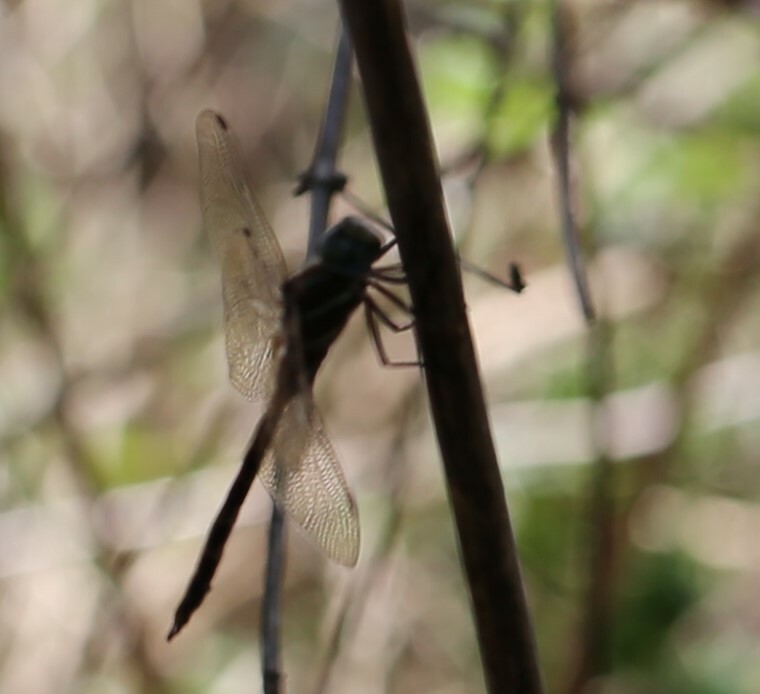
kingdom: Animalia
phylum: Arthropoda
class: Insecta
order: Odonata
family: Aeshnidae
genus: Aeshna
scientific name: Aeshna brevistyla
